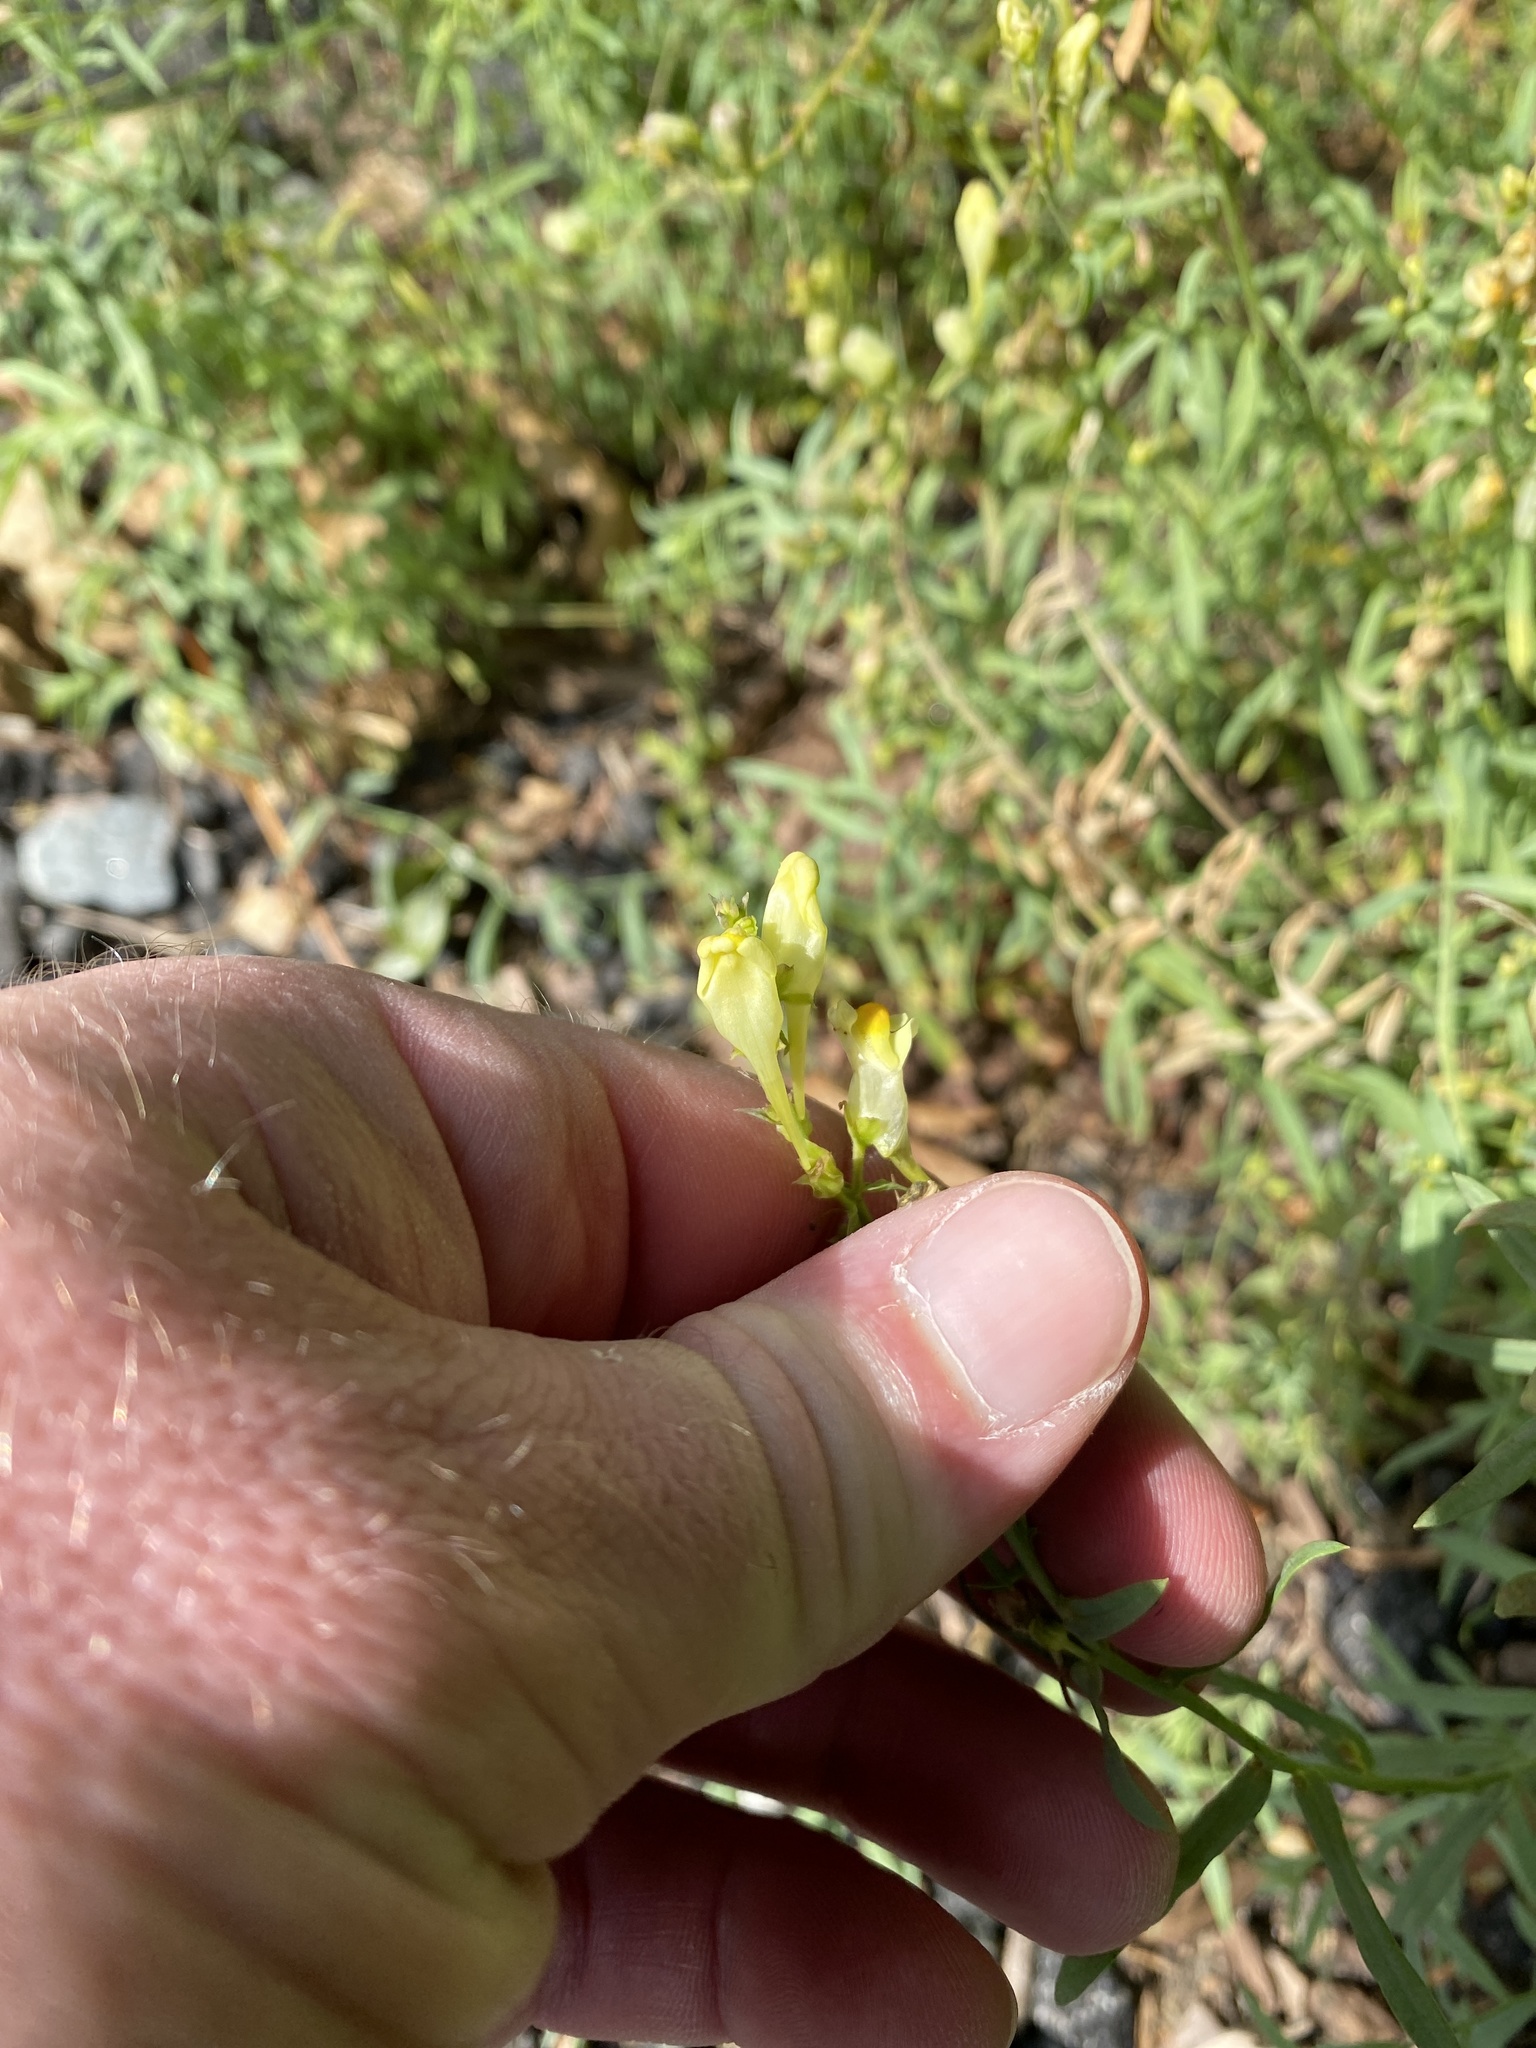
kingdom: Plantae
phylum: Tracheophyta
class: Magnoliopsida
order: Lamiales
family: Plantaginaceae
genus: Linaria
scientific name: Linaria vulgaris
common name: Butter and eggs
